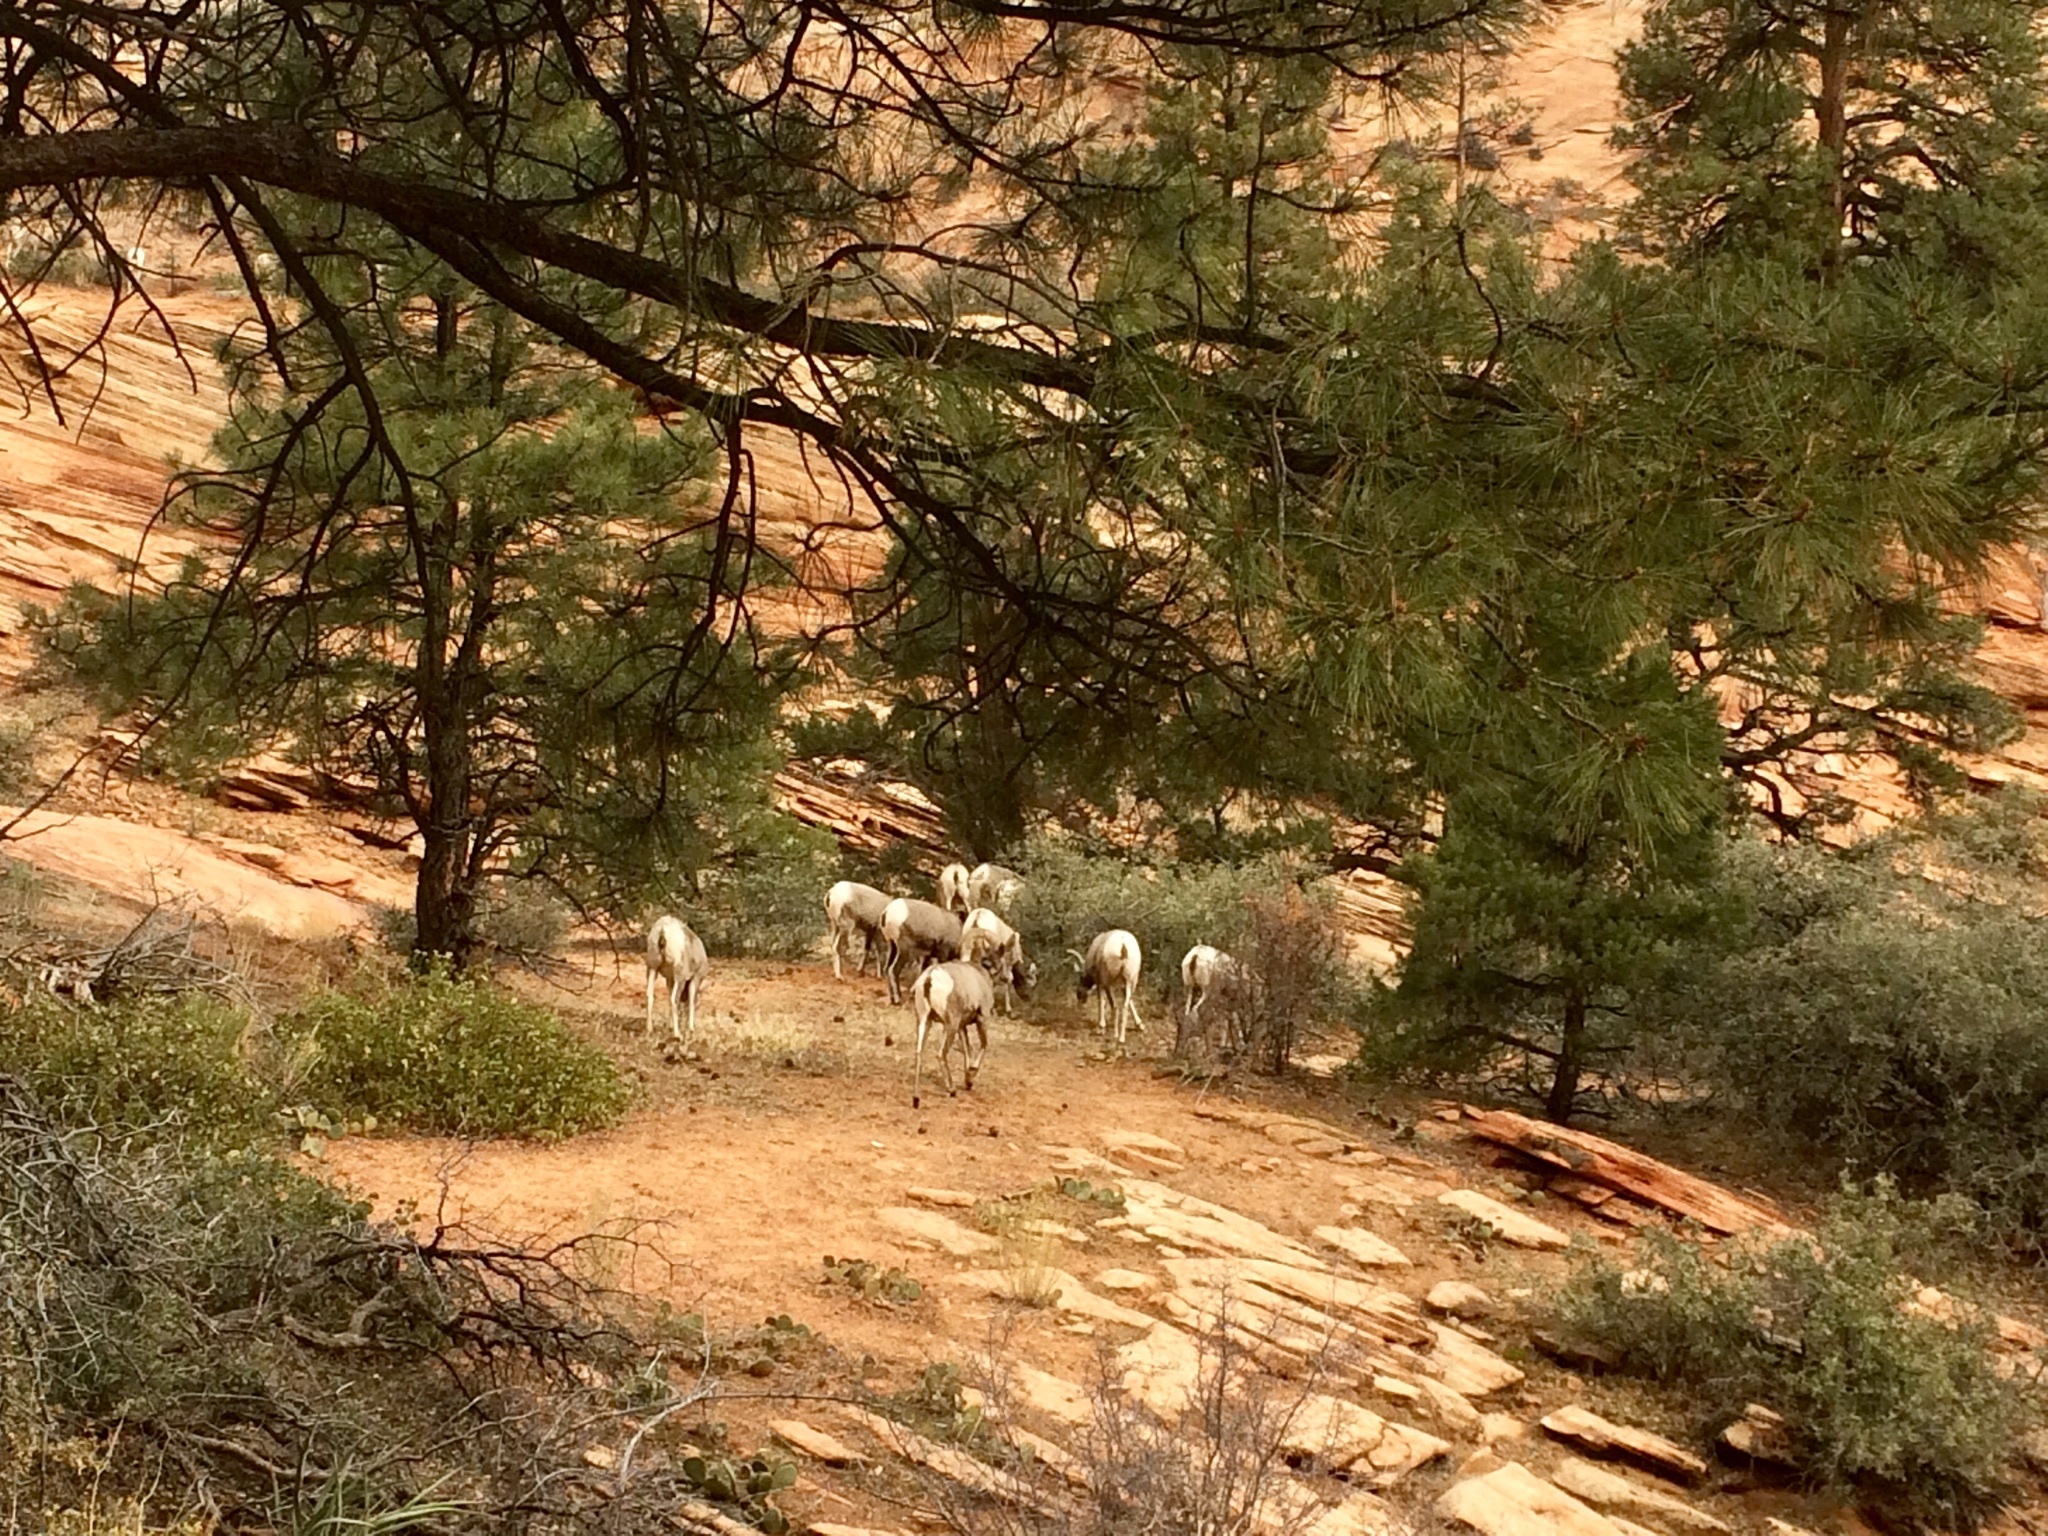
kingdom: Animalia
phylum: Chordata
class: Mammalia
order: Artiodactyla
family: Bovidae
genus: Ovis
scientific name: Ovis canadensis
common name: Bighorn sheep
